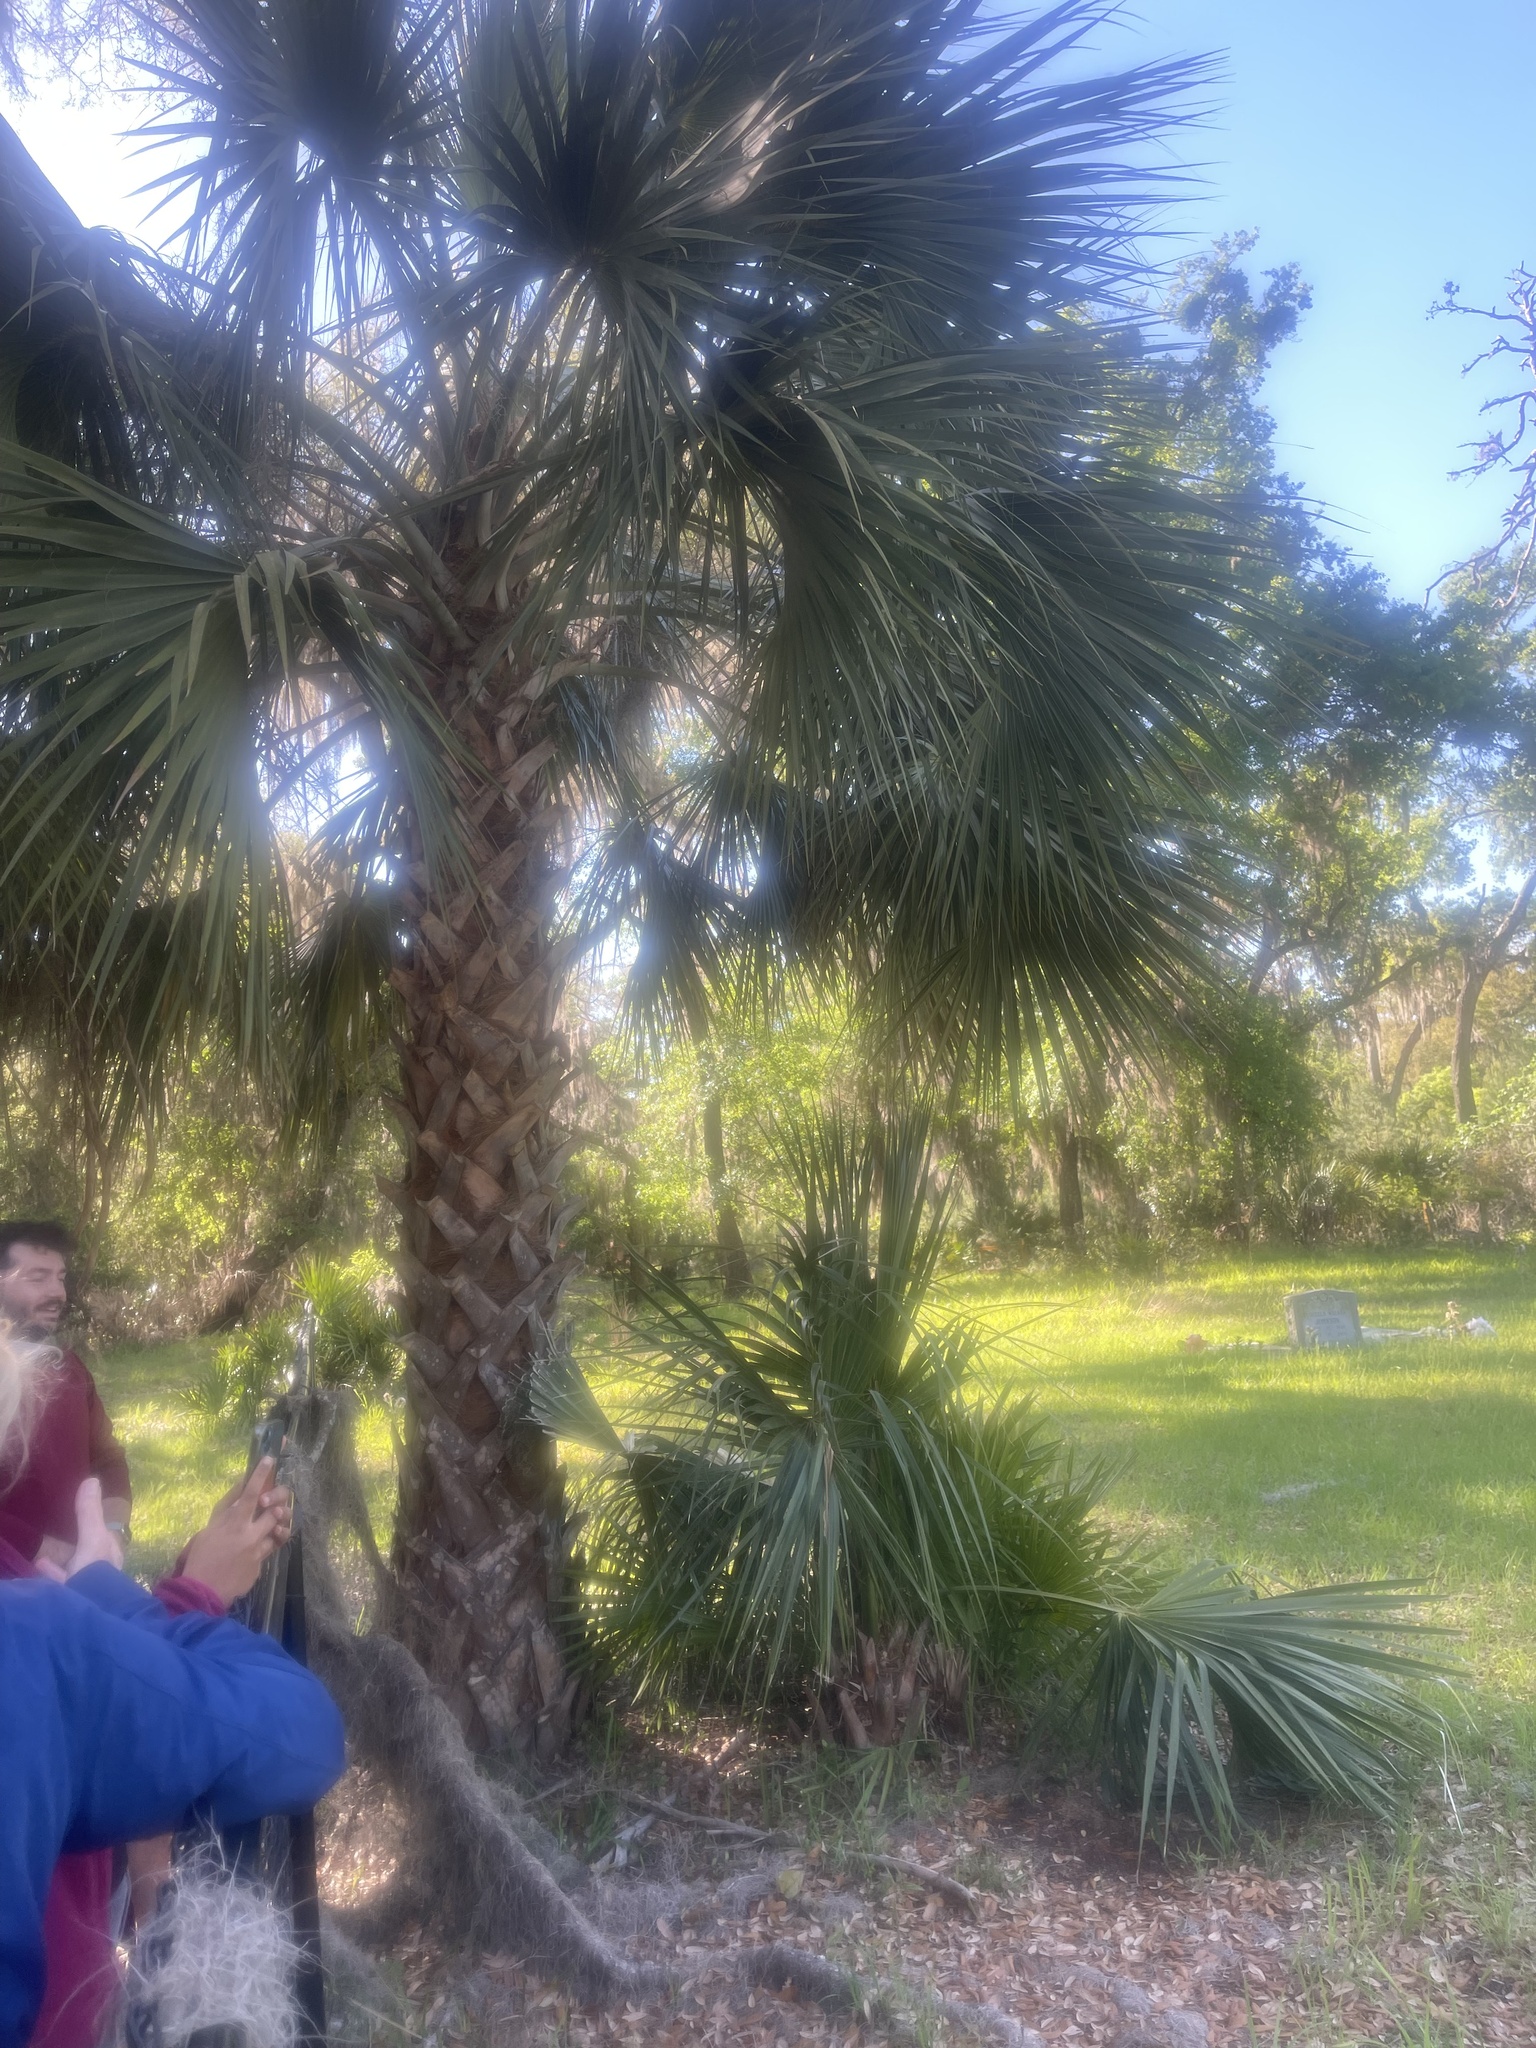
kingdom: Plantae
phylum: Tracheophyta
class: Liliopsida
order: Arecales
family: Arecaceae
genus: Sabal
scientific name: Sabal palmetto
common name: Blue palmetto
